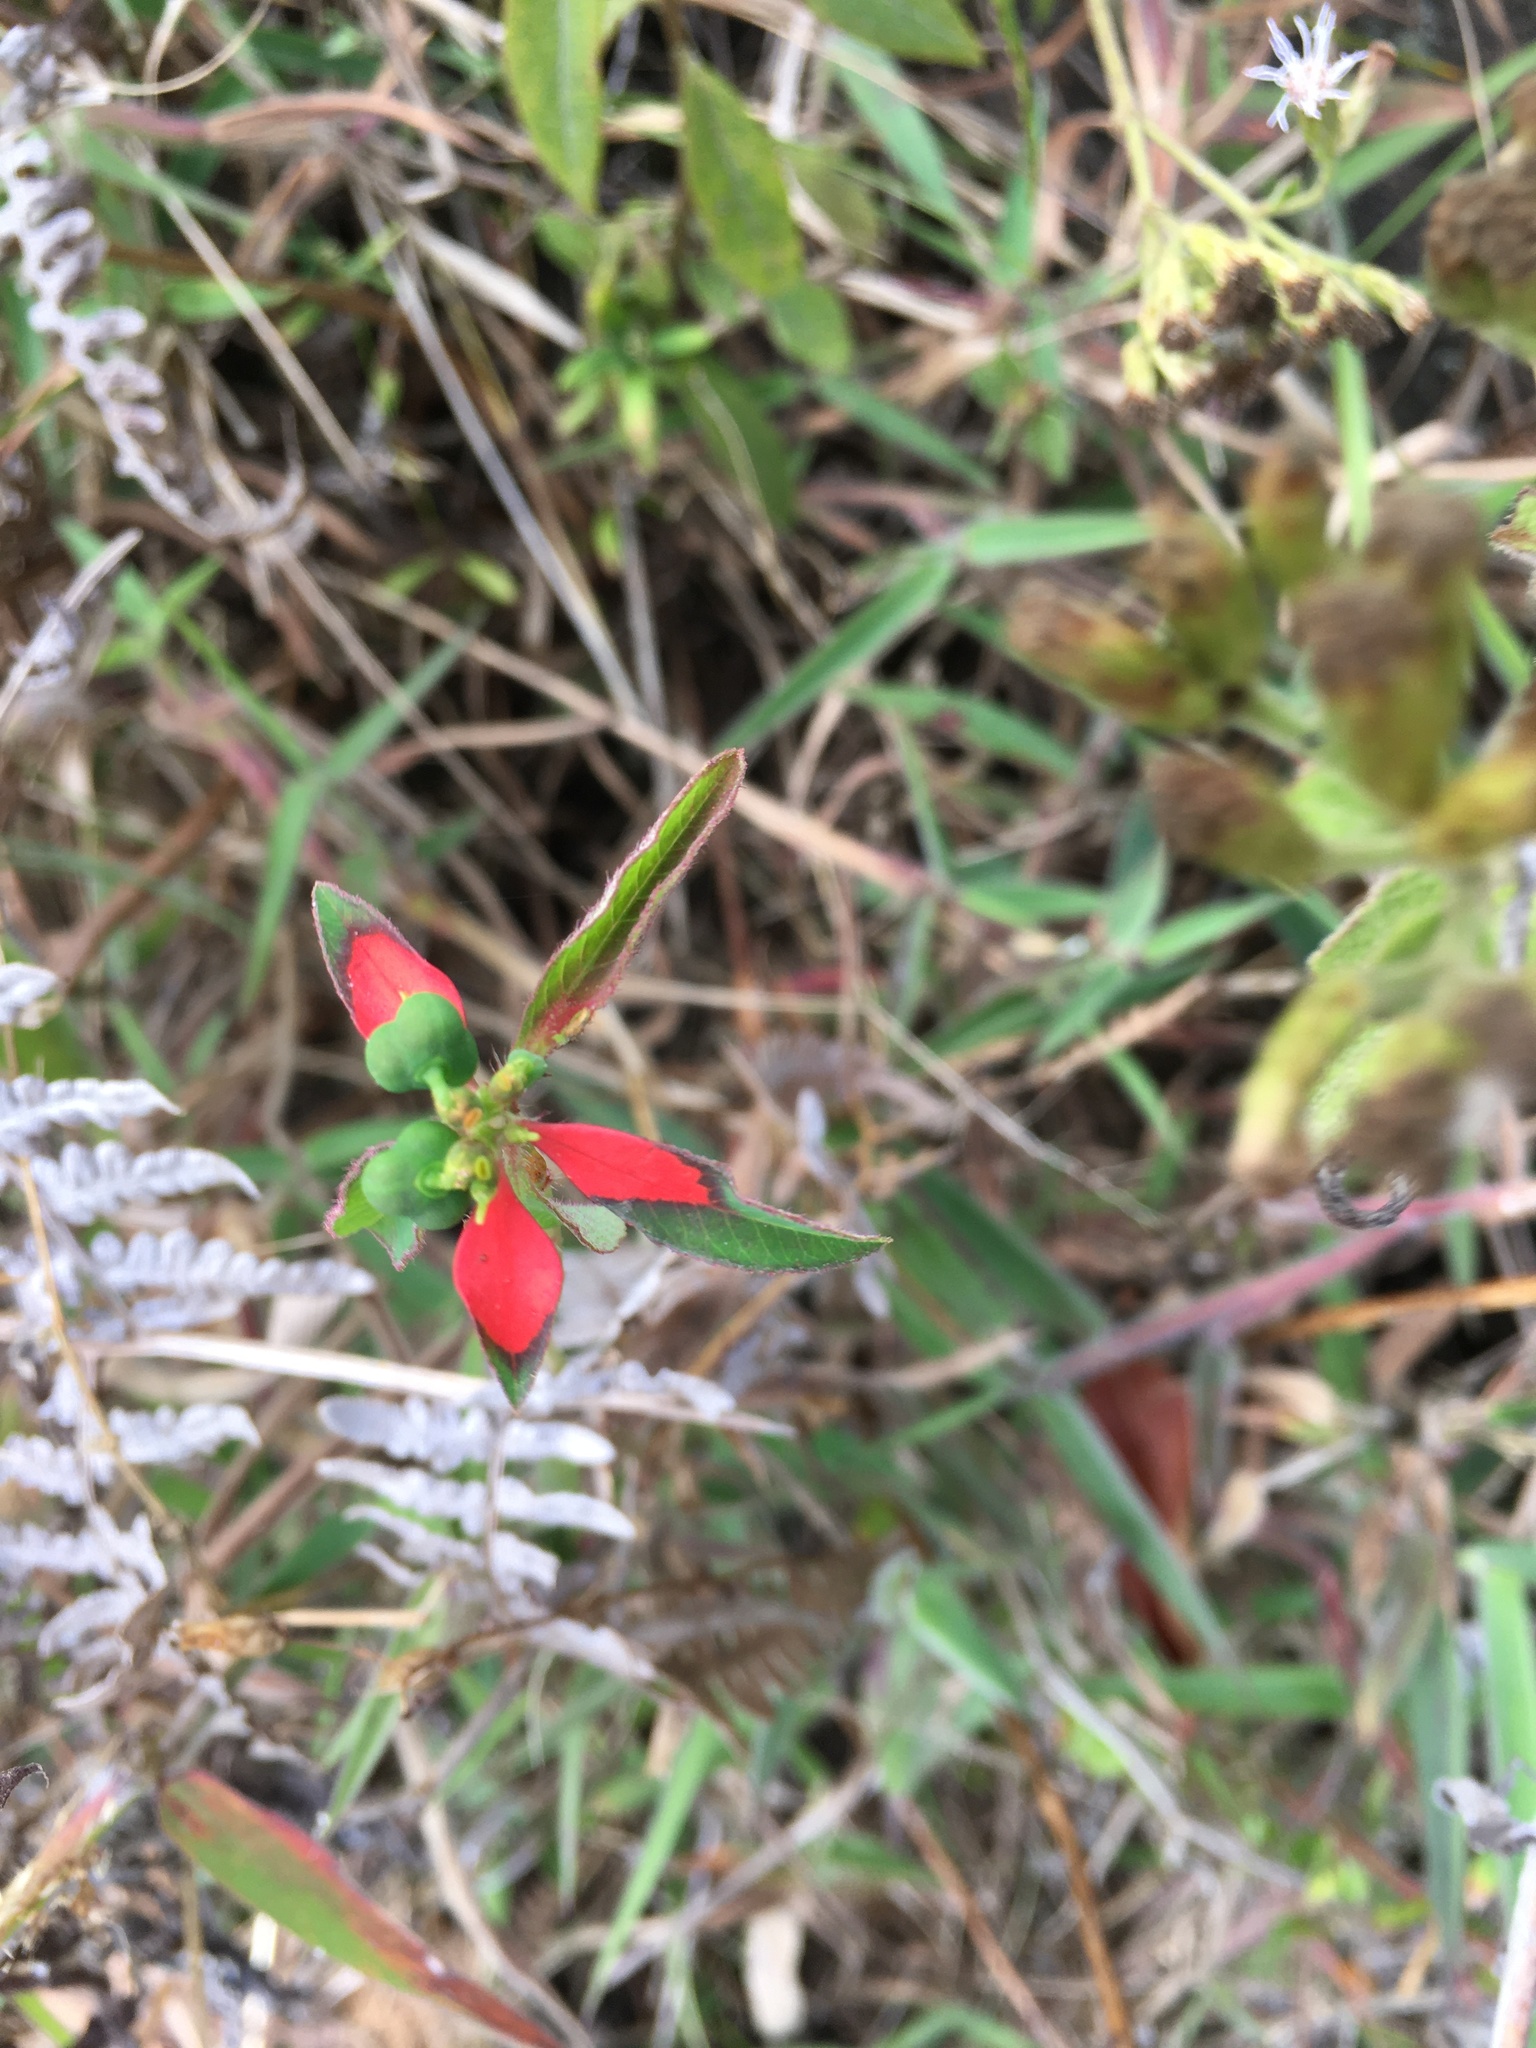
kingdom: Plantae
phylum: Tracheophyta
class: Magnoliopsida
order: Malpighiales
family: Euphorbiaceae
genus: Euphorbia
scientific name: Euphorbia heterophylla
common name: Mexican fireplant
